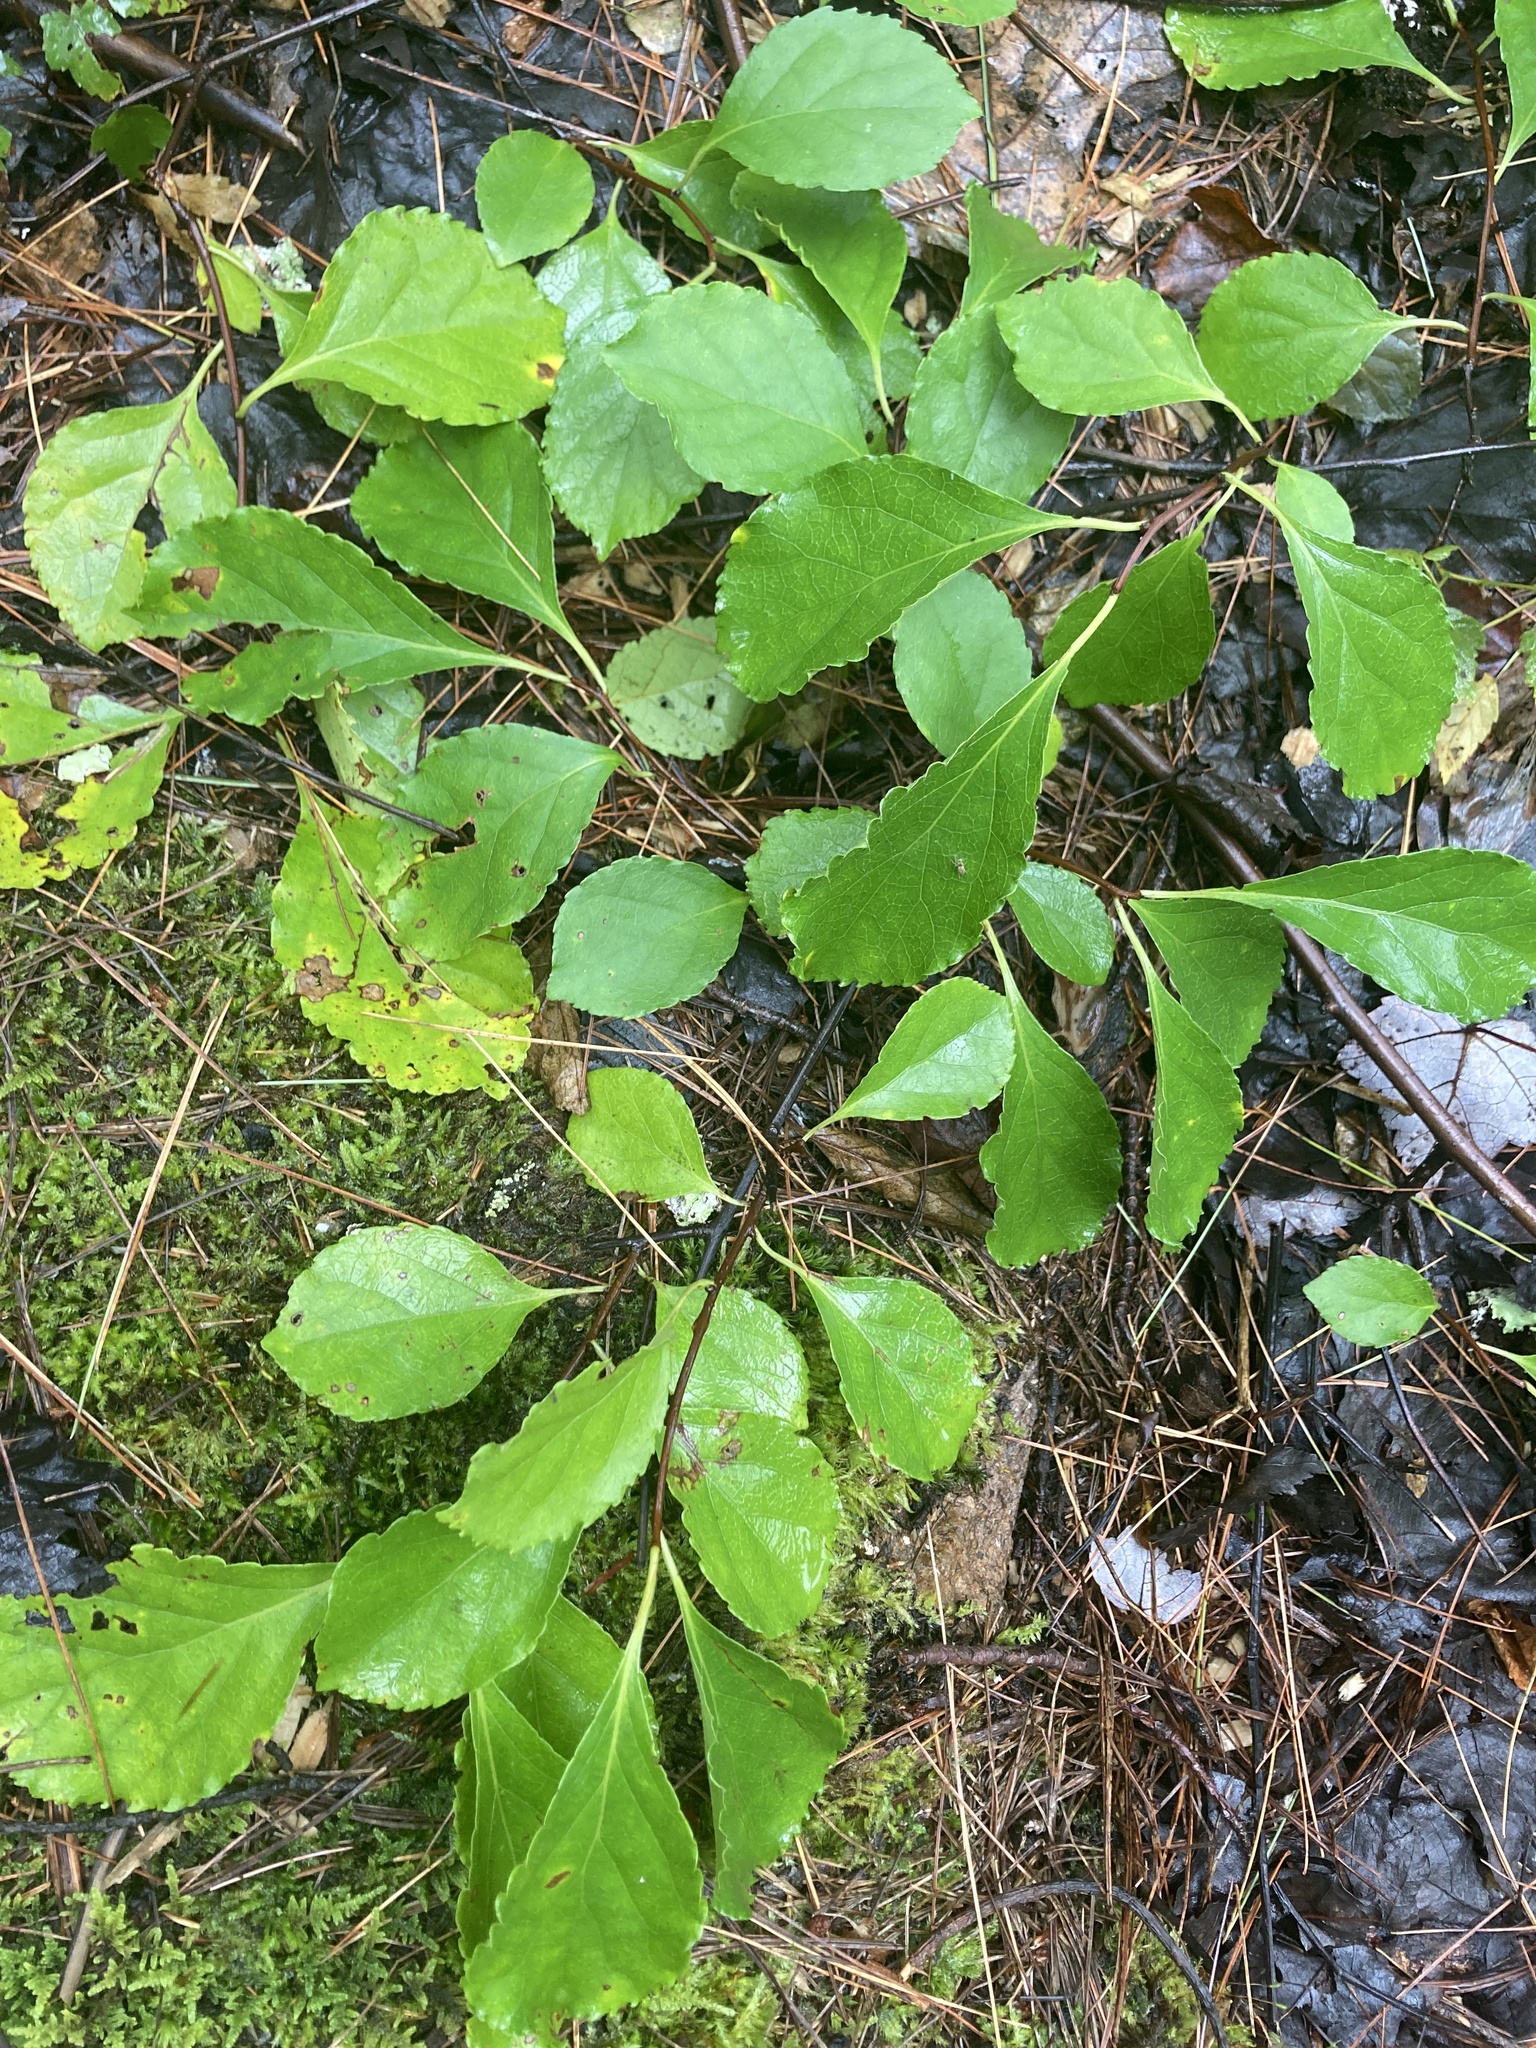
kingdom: Plantae
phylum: Tracheophyta
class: Magnoliopsida
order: Celastrales
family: Celastraceae
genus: Celastrus
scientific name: Celastrus orbiculatus
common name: Oriental bittersweet
